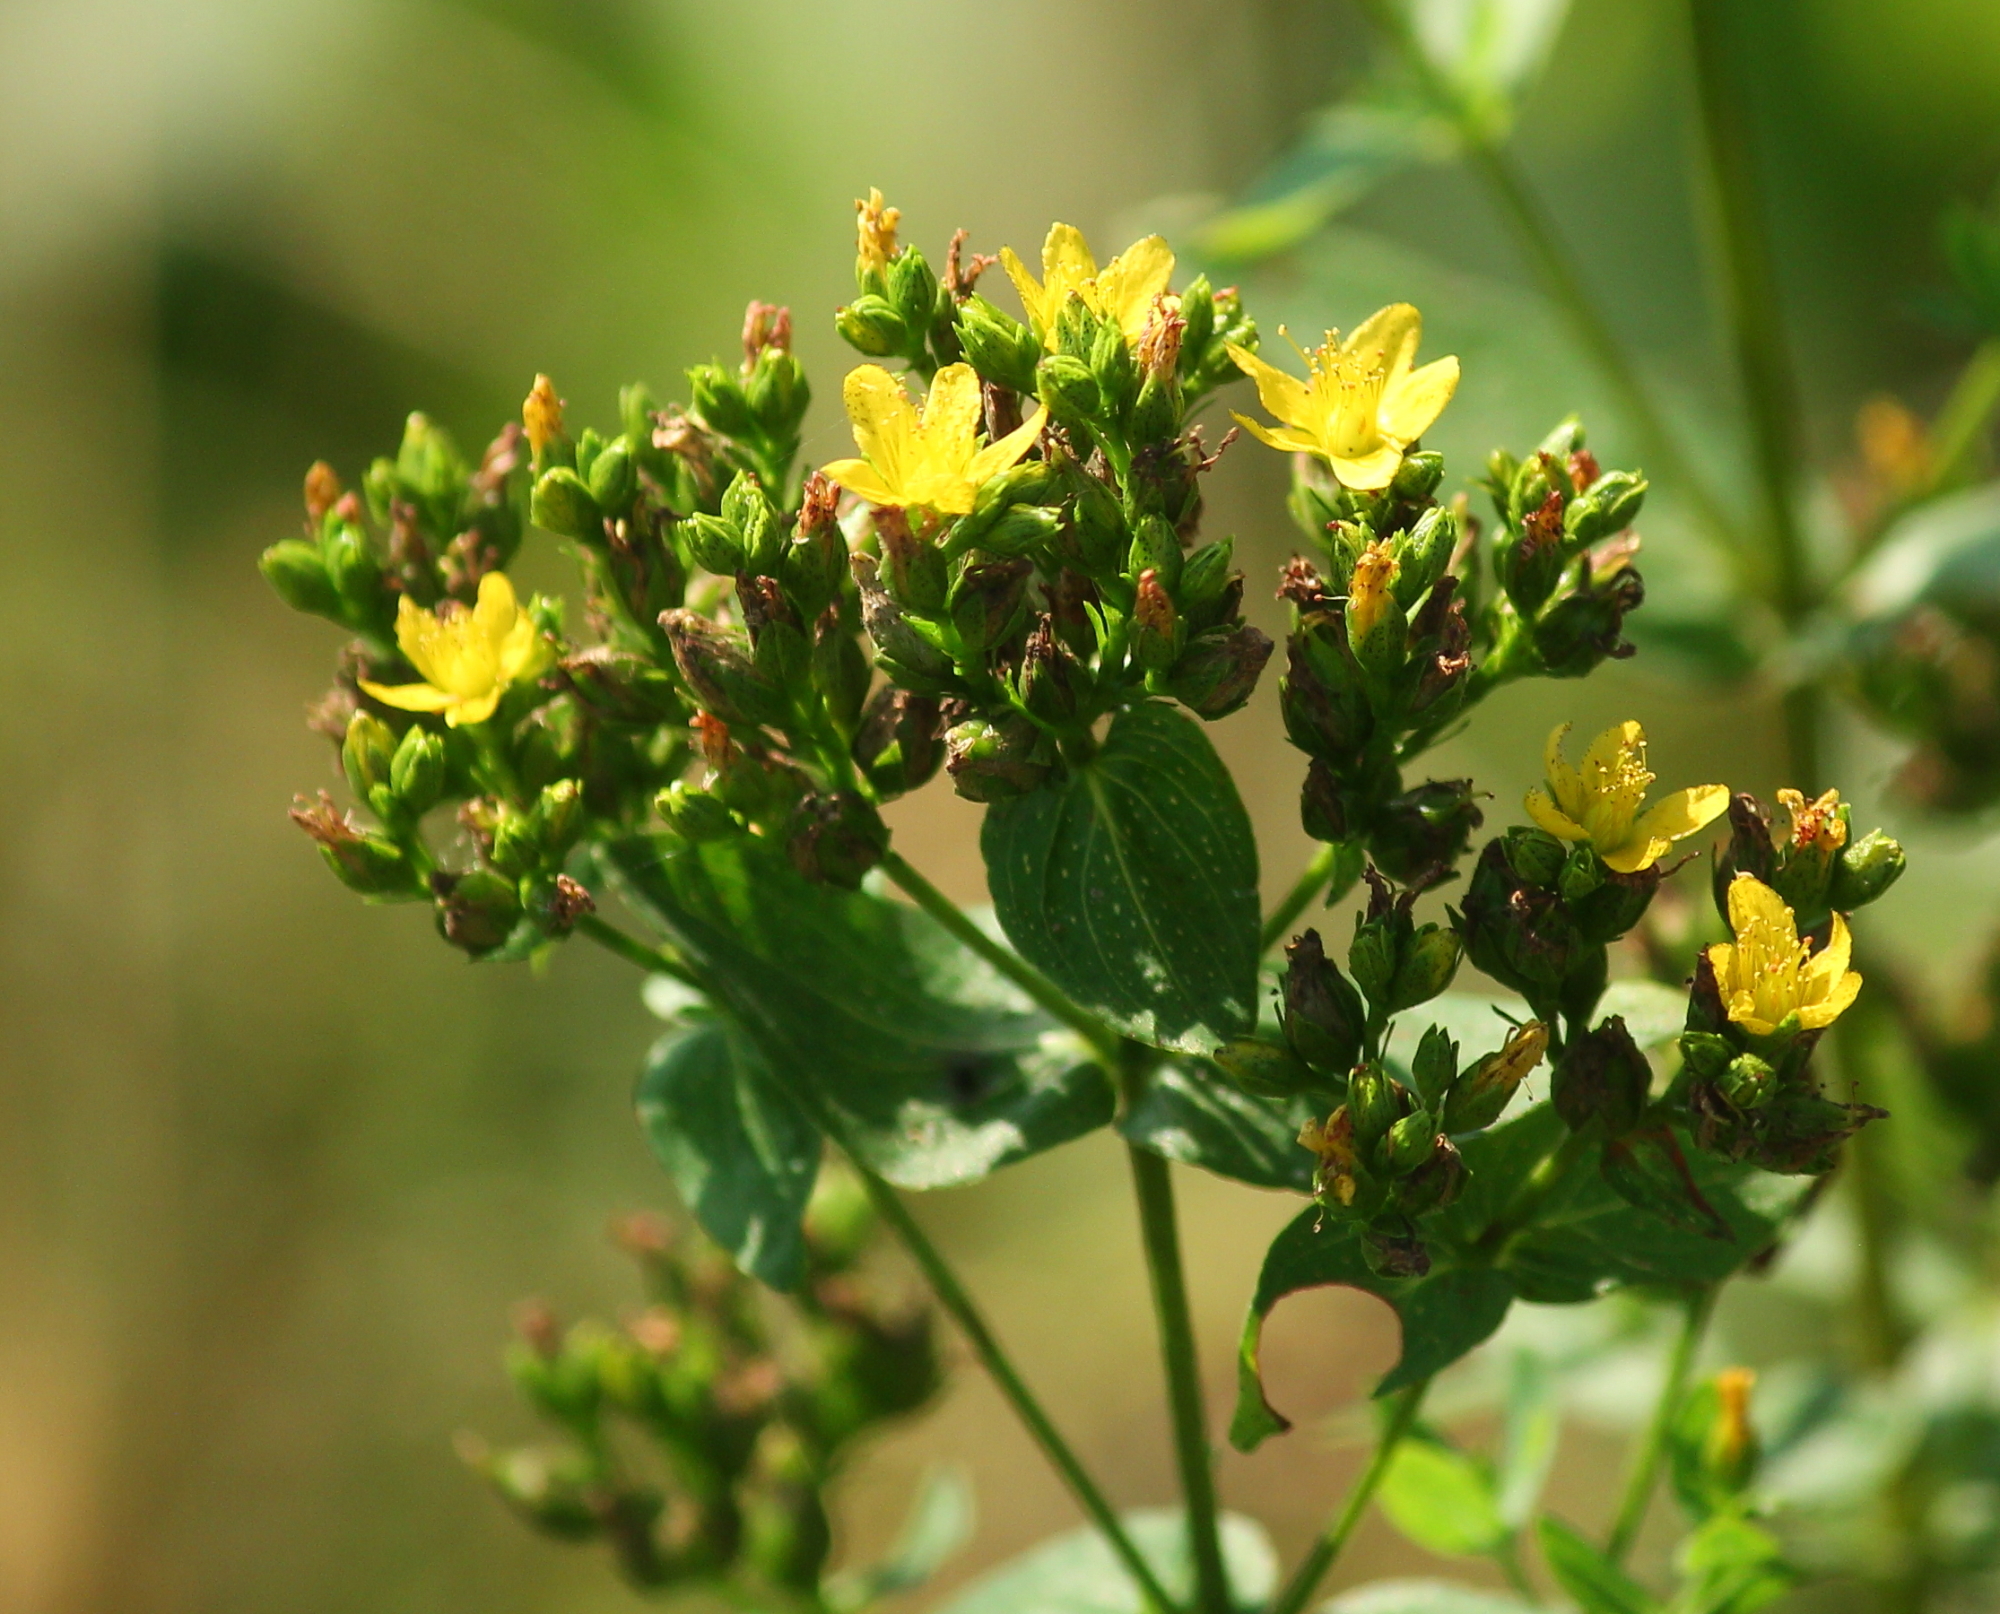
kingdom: Plantae
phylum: Tracheophyta
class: Magnoliopsida
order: Malpighiales
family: Hypericaceae
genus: Hypericum
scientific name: Hypericum punctatum
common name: Spotted st. john's-wort
